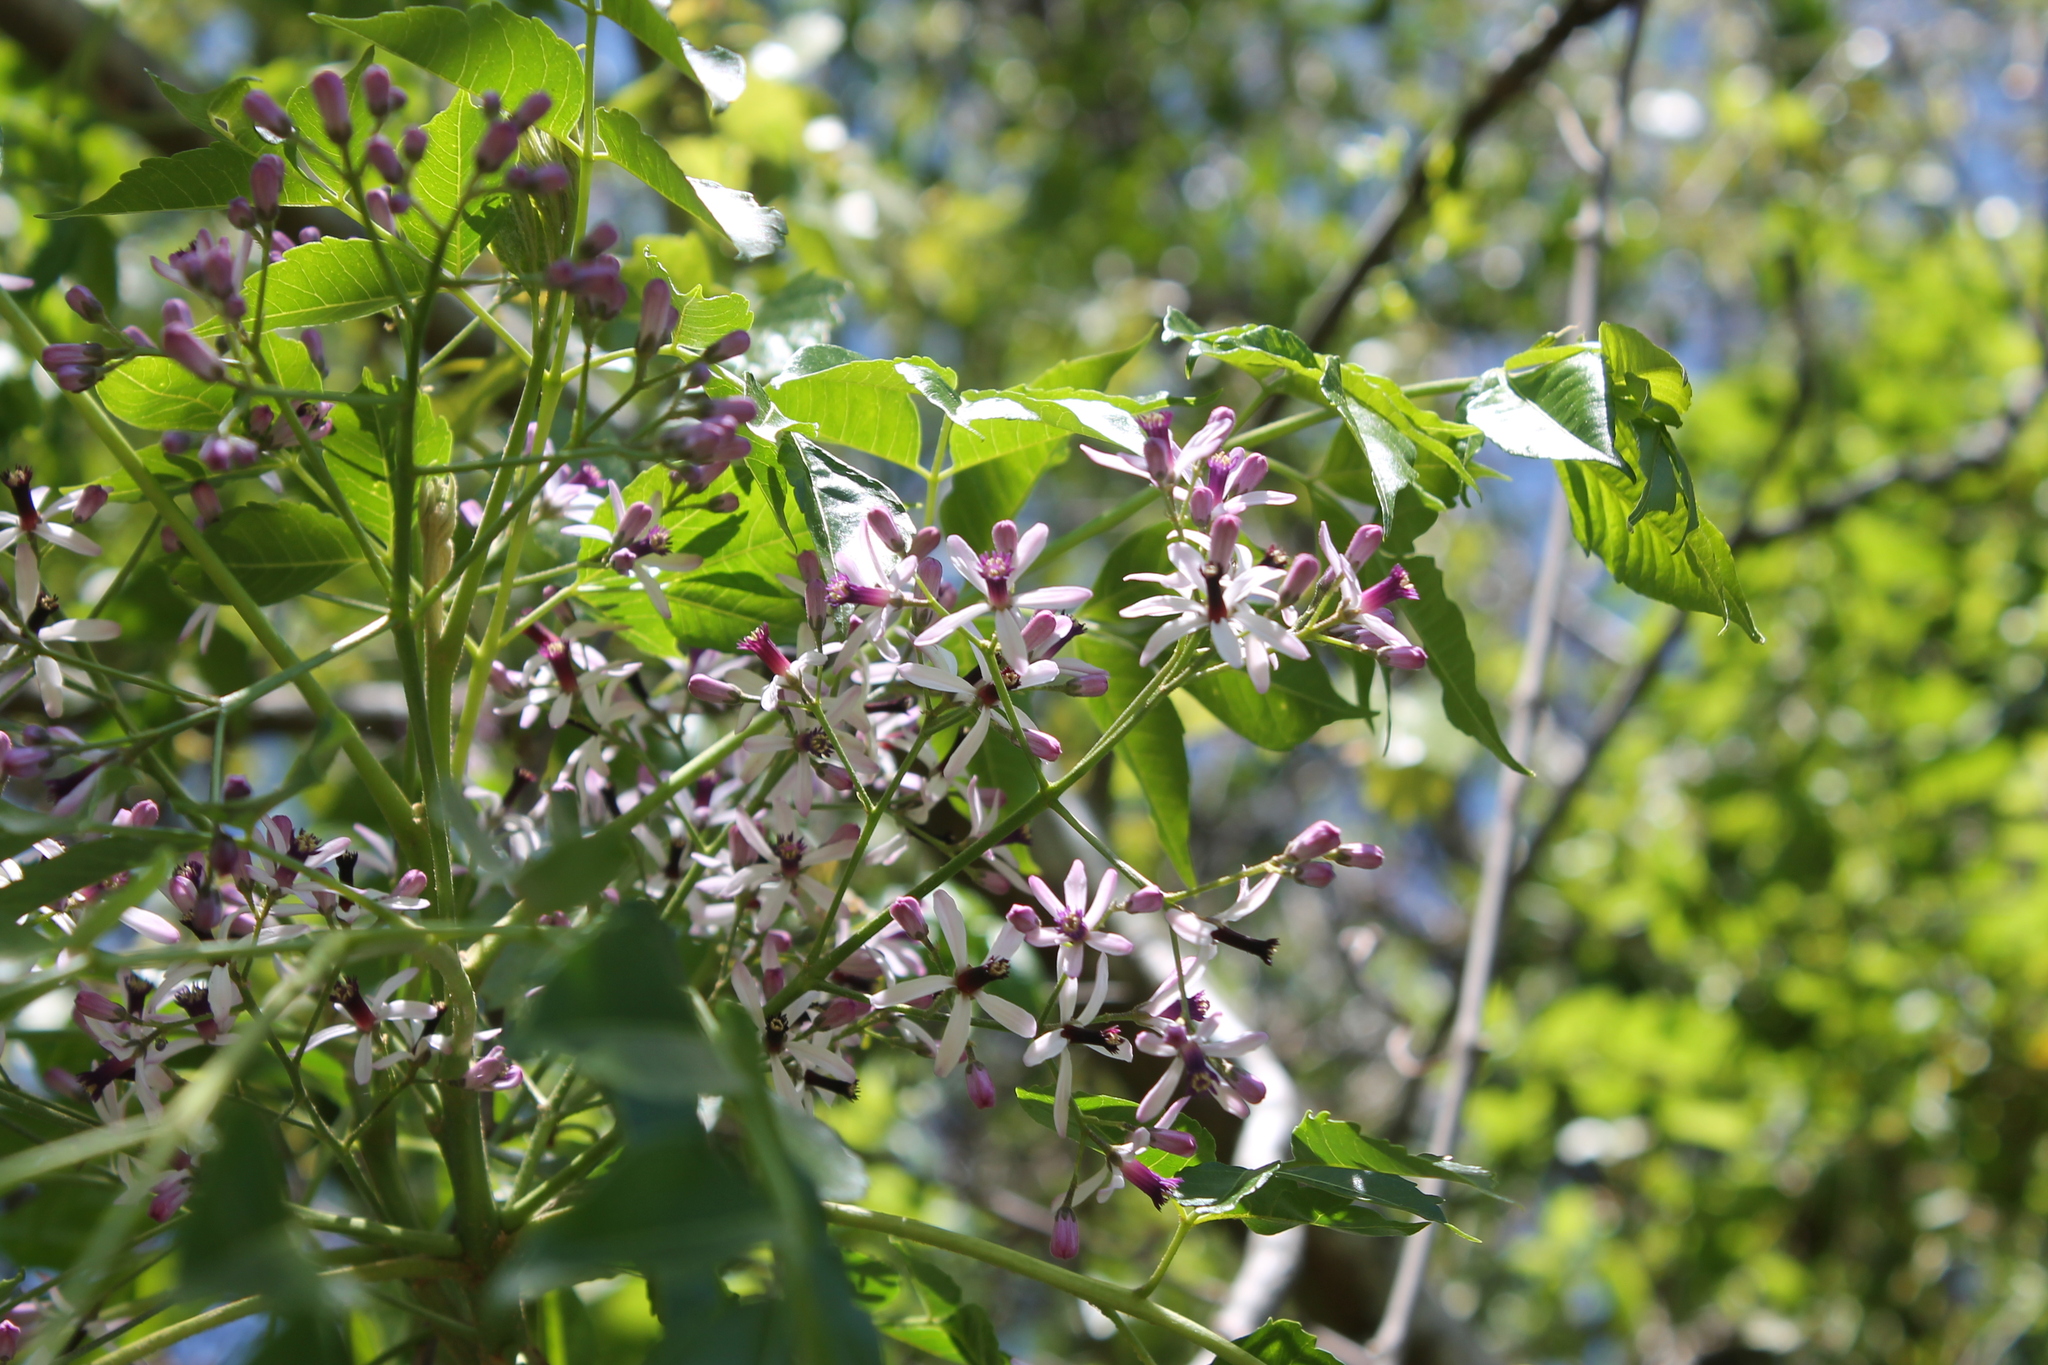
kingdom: Plantae
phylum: Tracheophyta
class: Magnoliopsida
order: Sapindales
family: Meliaceae
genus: Melia
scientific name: Melia azedarach
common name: Chinaberrytree
